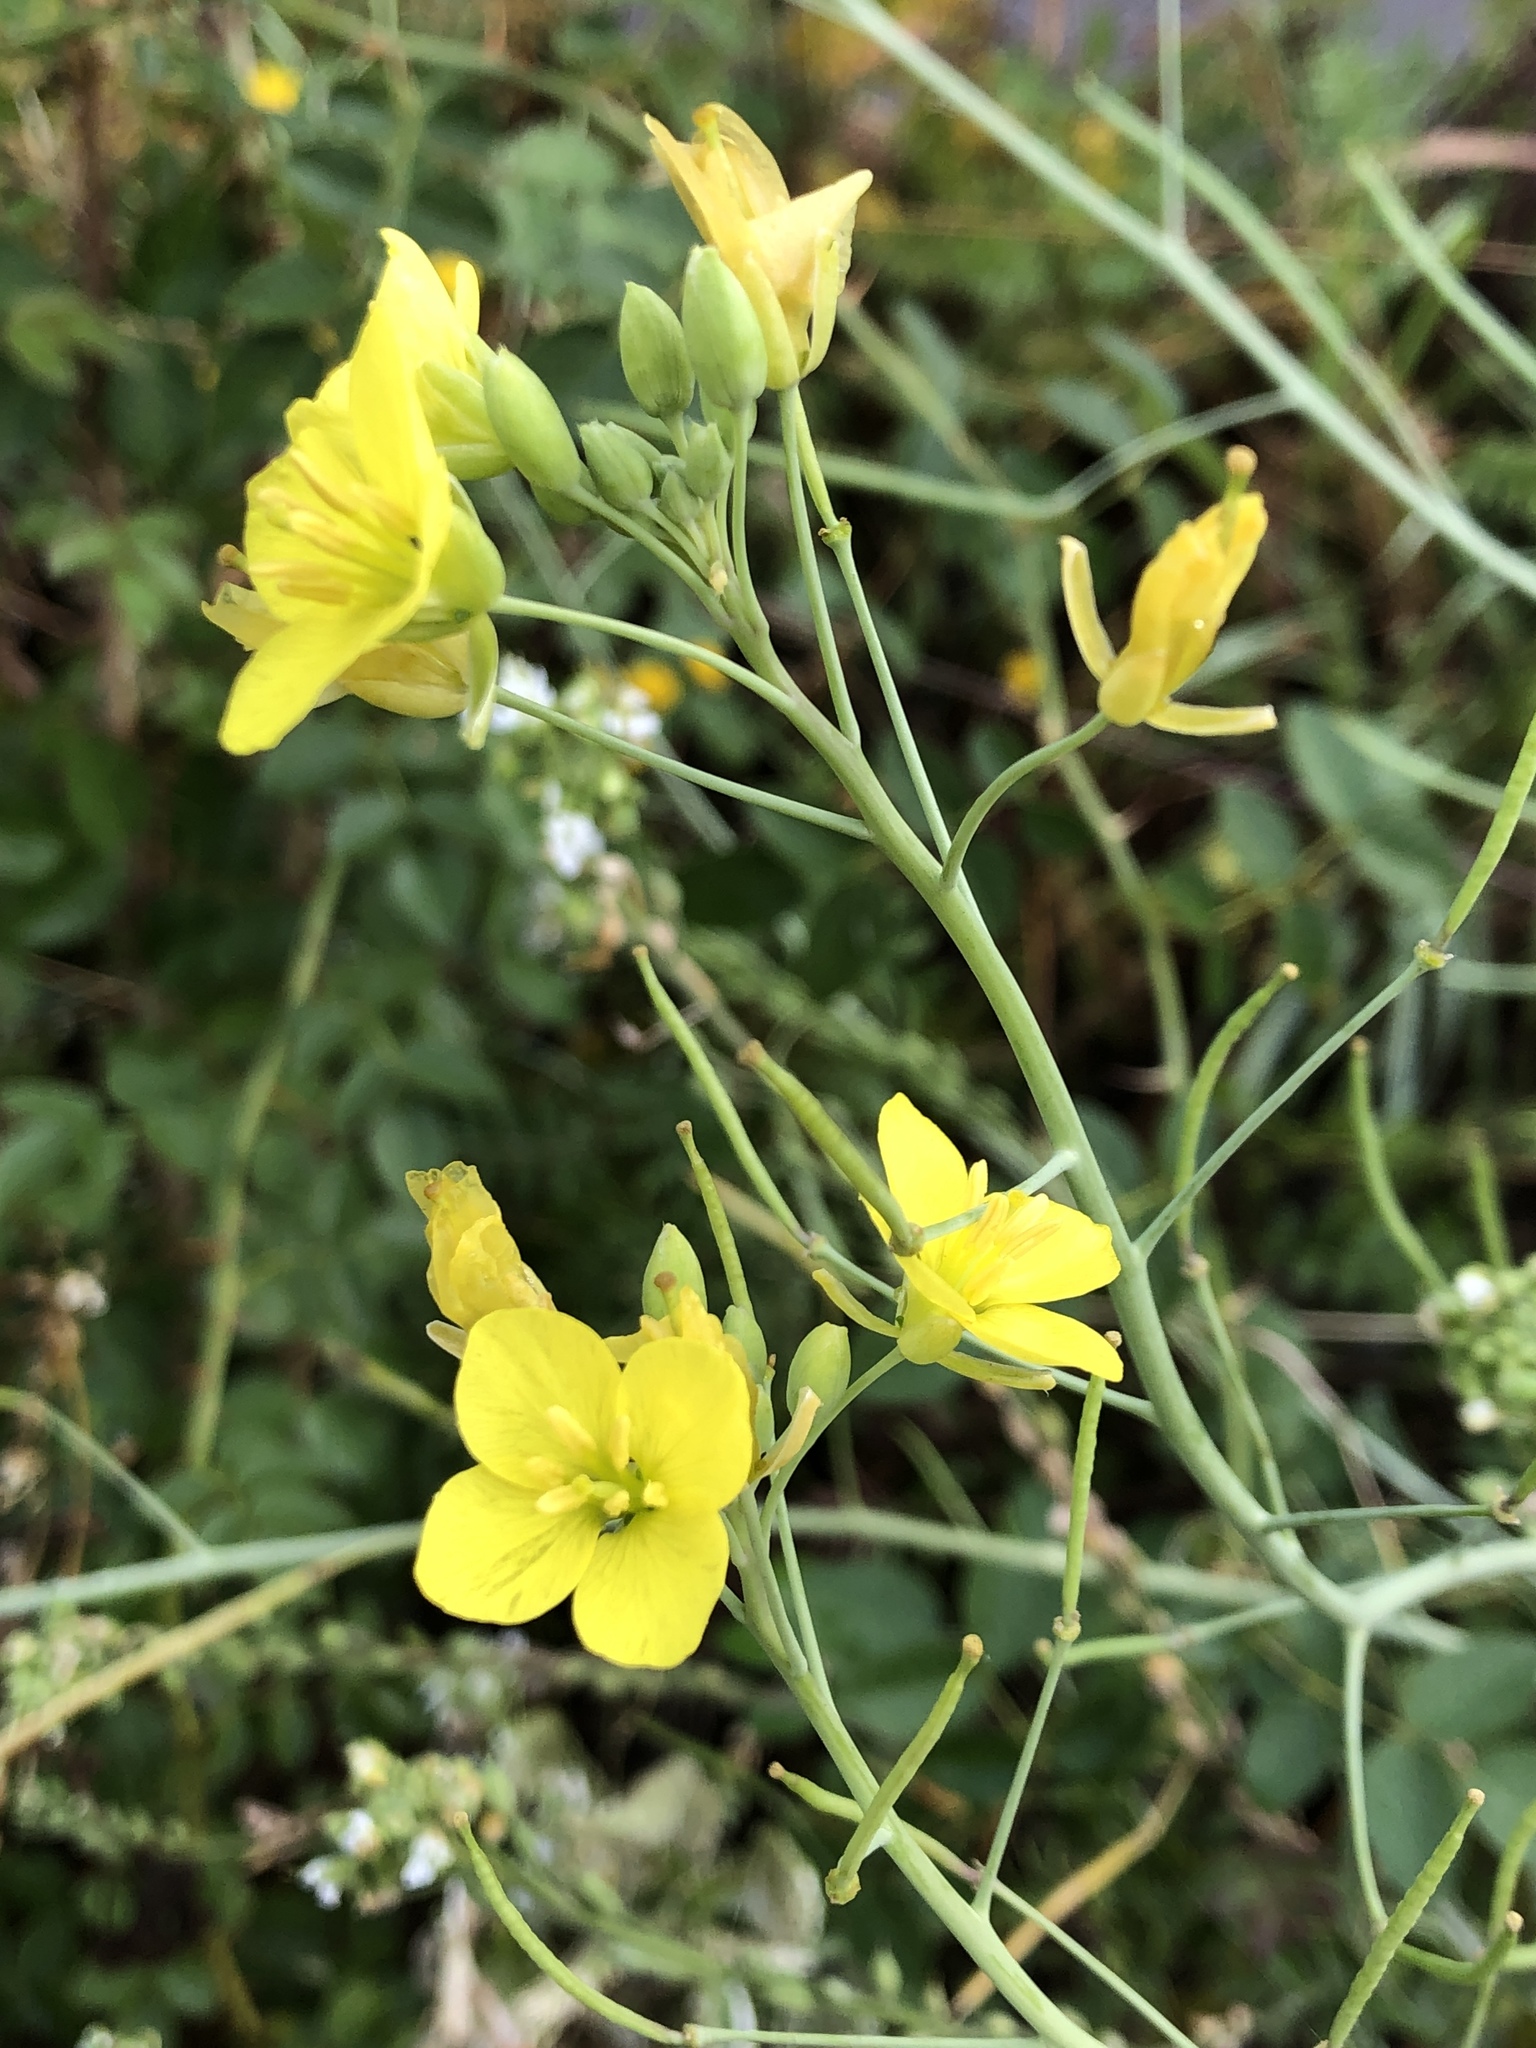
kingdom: Plantae
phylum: Tracheophyta
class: Magnoliopsida
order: Brassicales
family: Brassicaceae
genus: Diplotaxis
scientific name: Diplotaxis tenuifolia
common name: Perennial wall-rocket
